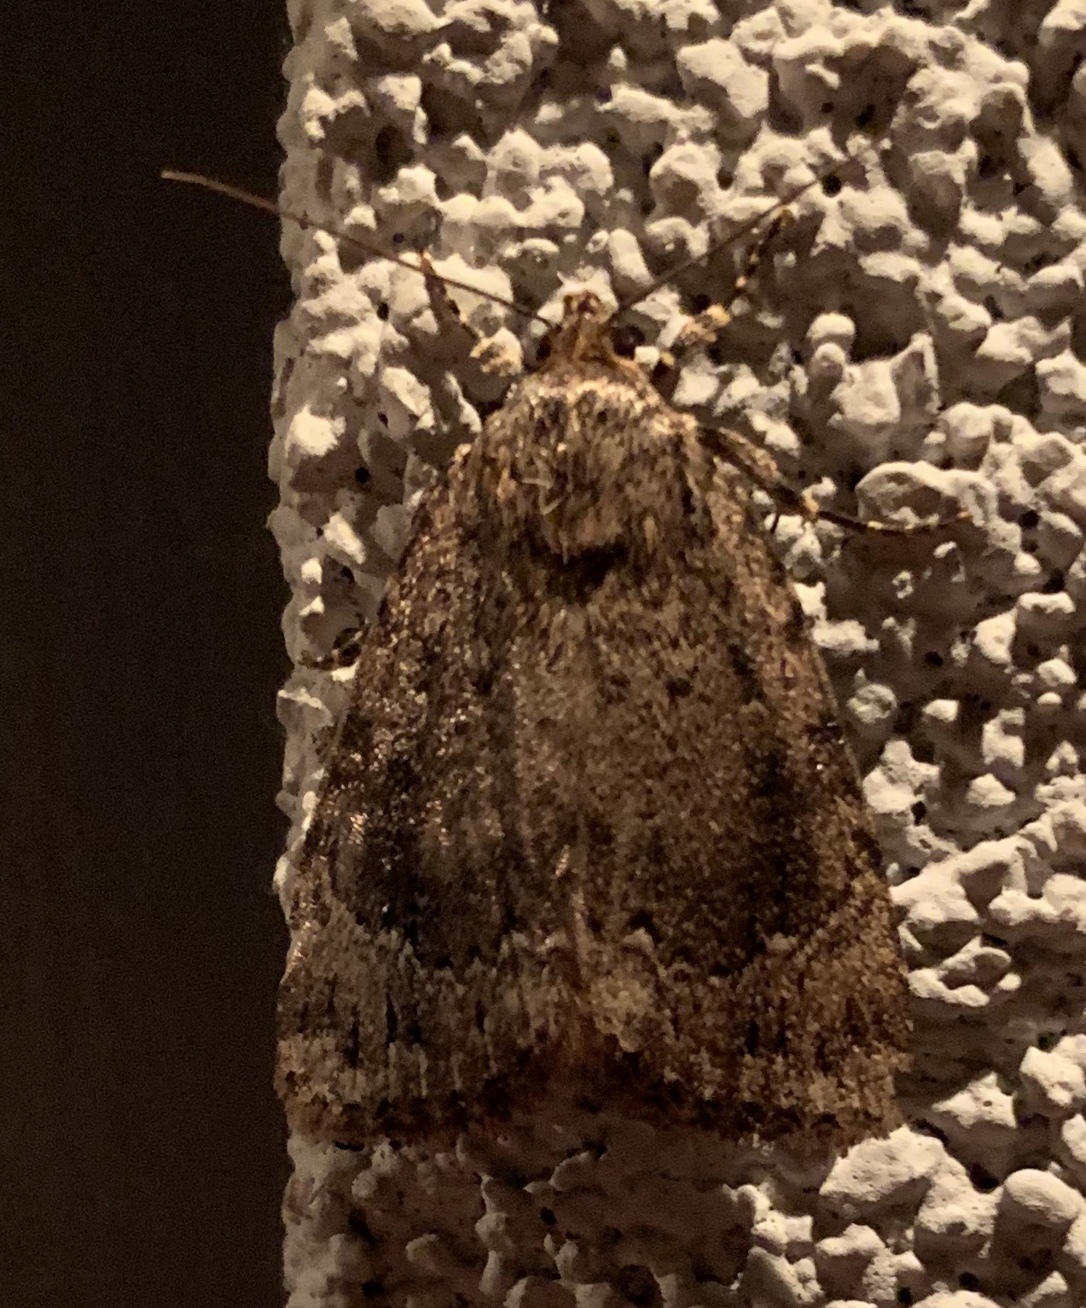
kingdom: Animalia
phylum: Arthropoda
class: Insecta
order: Lepidoptera
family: Noctuidae
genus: Amphipyra
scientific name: Amphipyra pyramidoides
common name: American copper underwing
